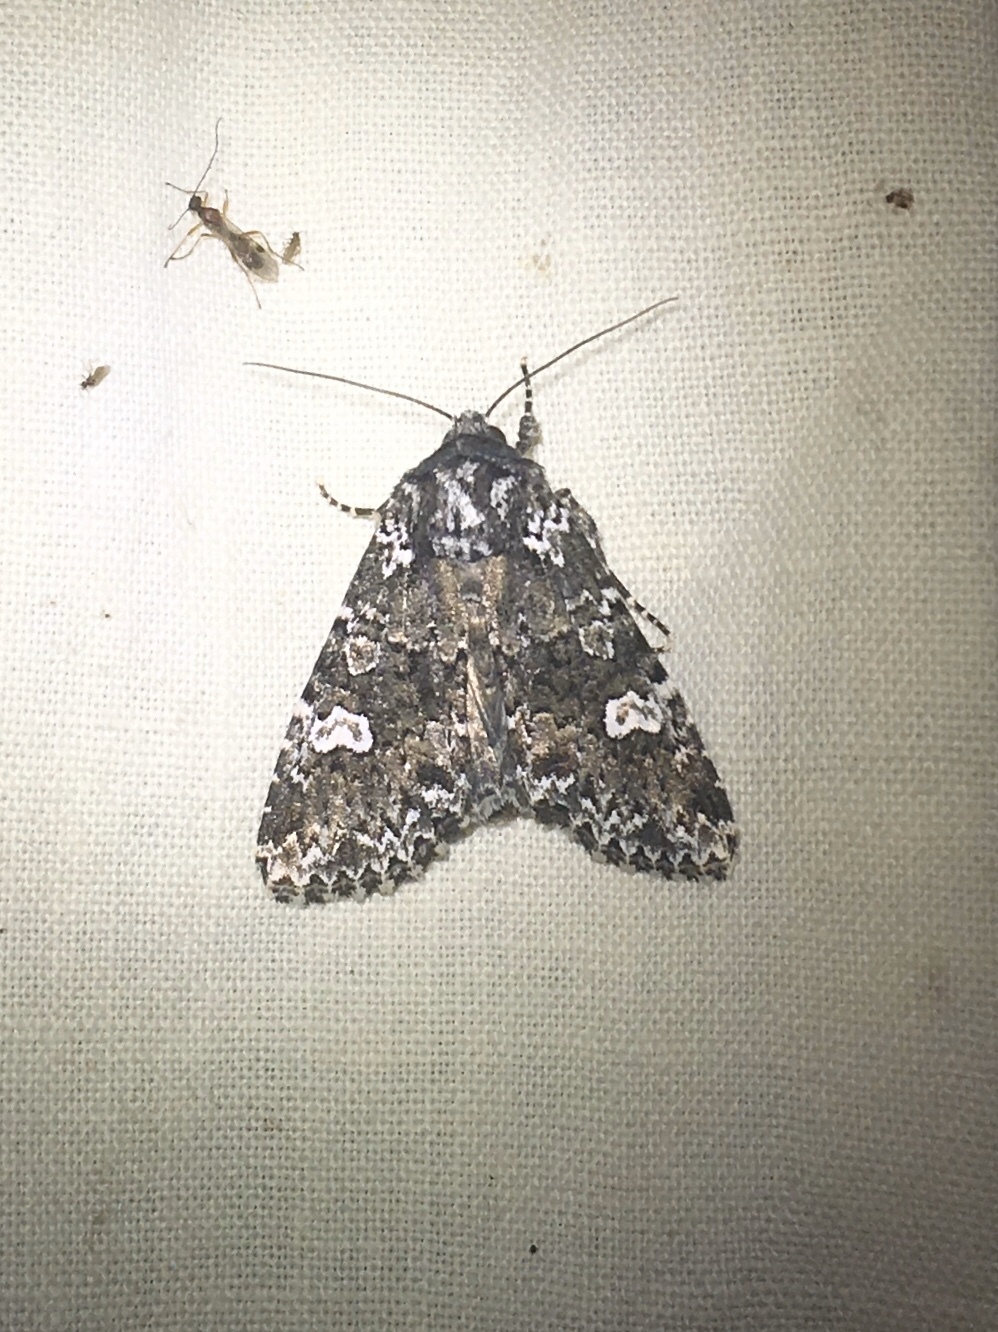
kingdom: Animalia
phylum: Arthropoda
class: Insecta
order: Lepidoptera
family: Noctuidae
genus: Melanchra
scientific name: Melanchra adjuncta
